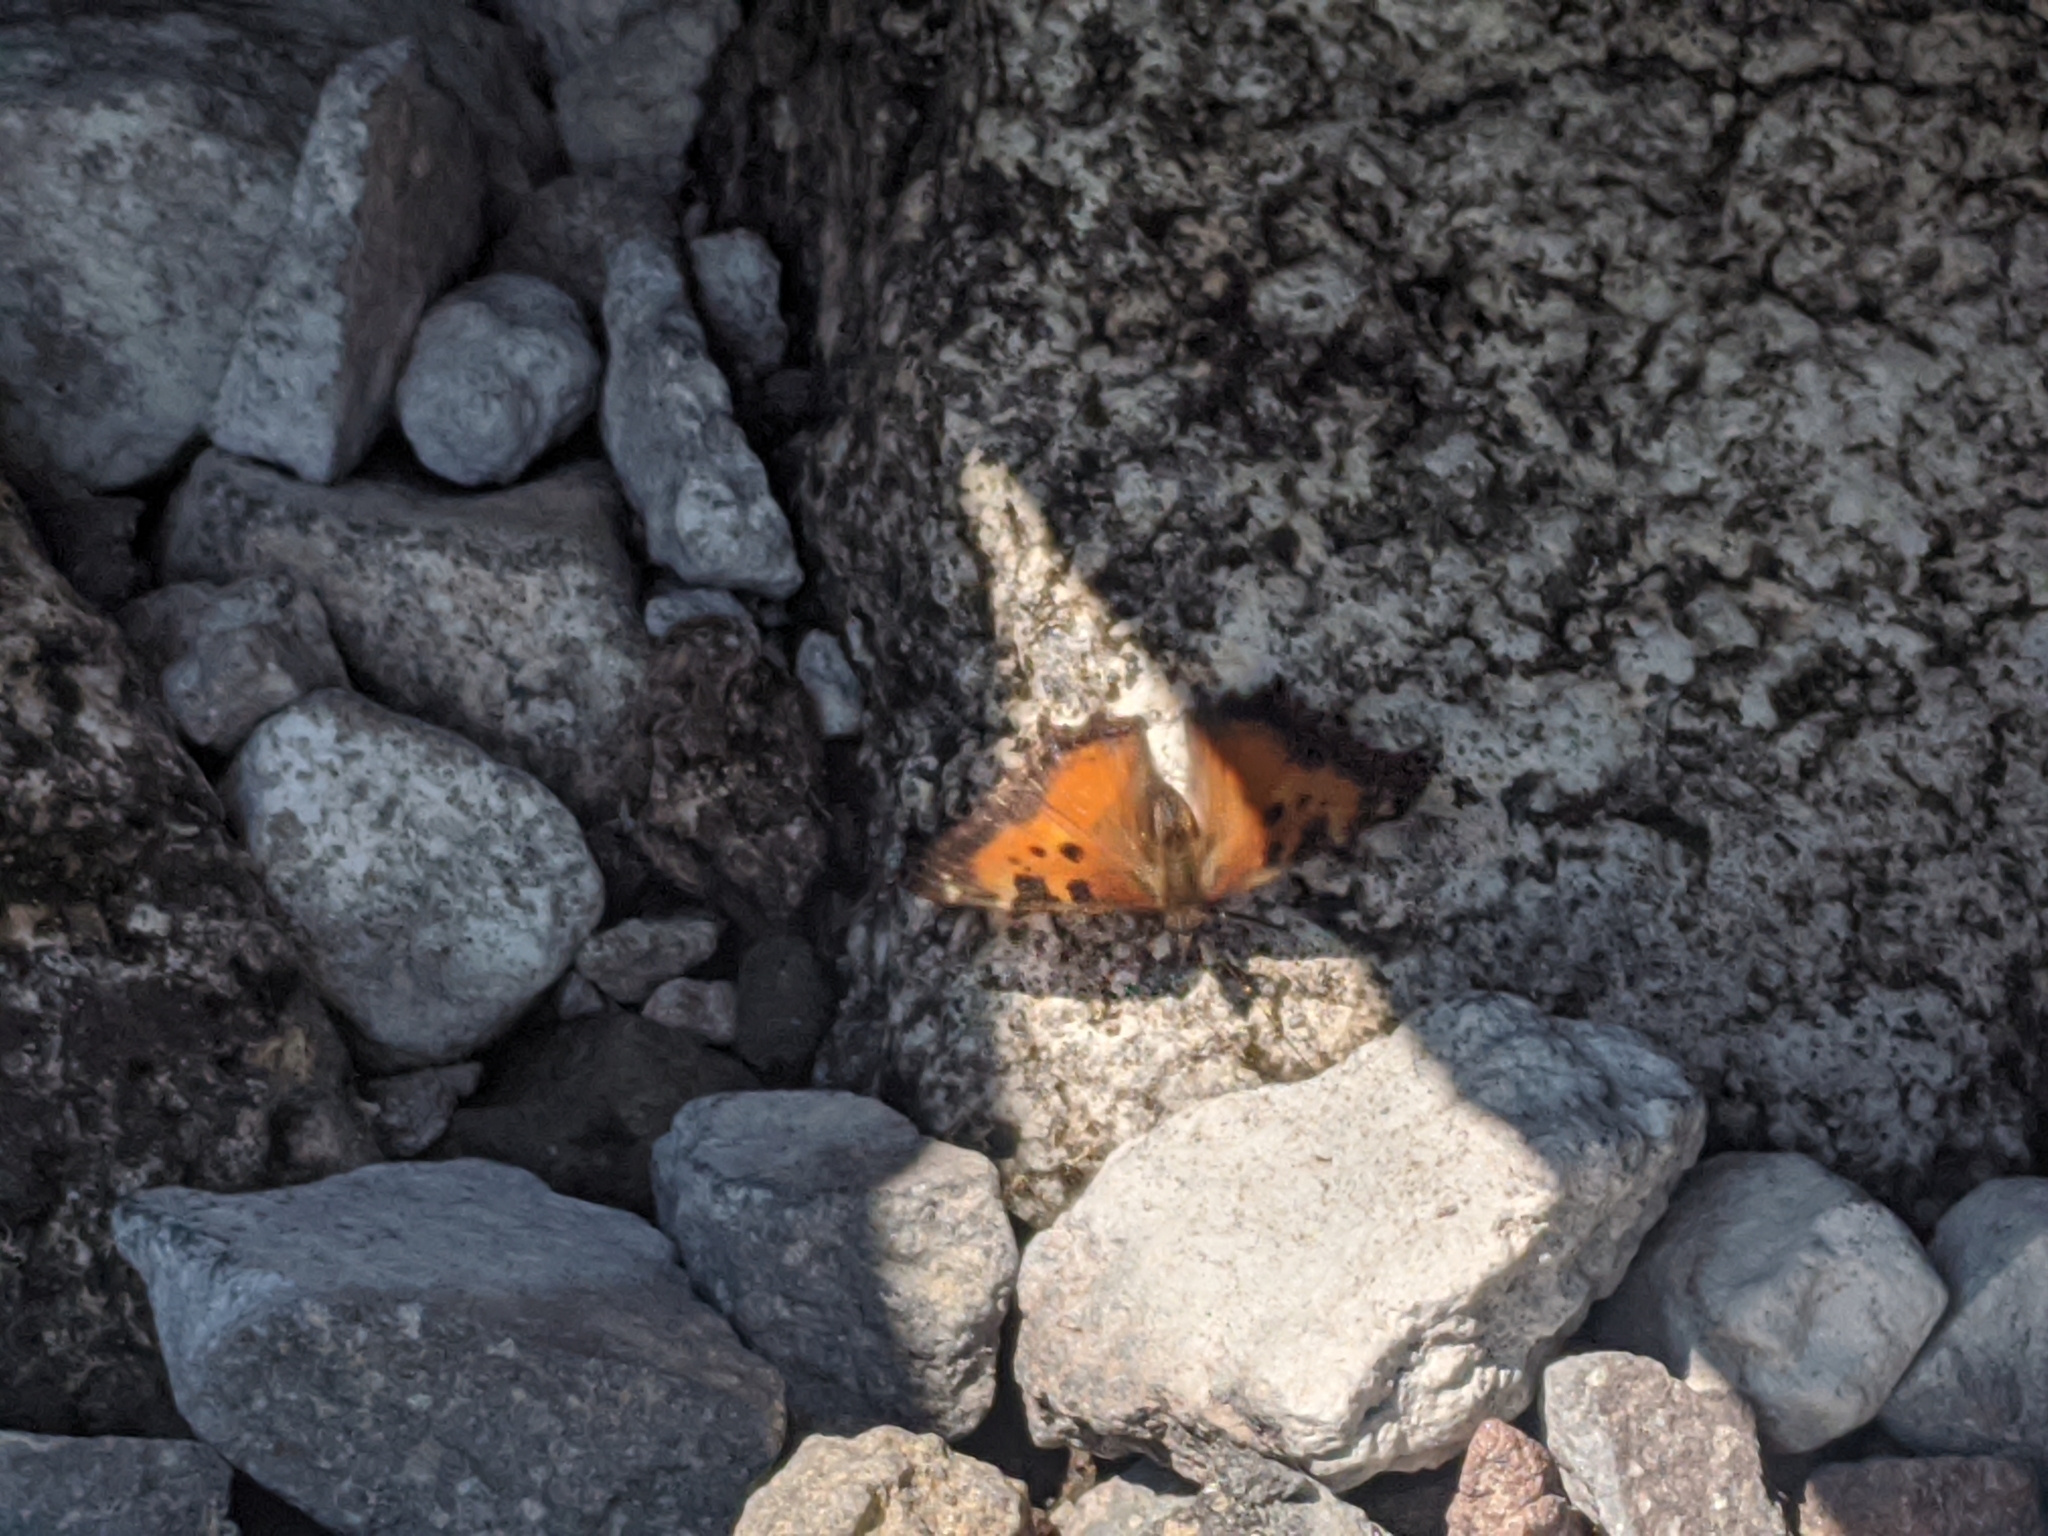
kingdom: Animalia
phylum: Arthropoda
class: Insecta
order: Lepidoptera
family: Nymphalidae
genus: Nymphalis
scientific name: Nymphalis californica
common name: California tortoiseshell
